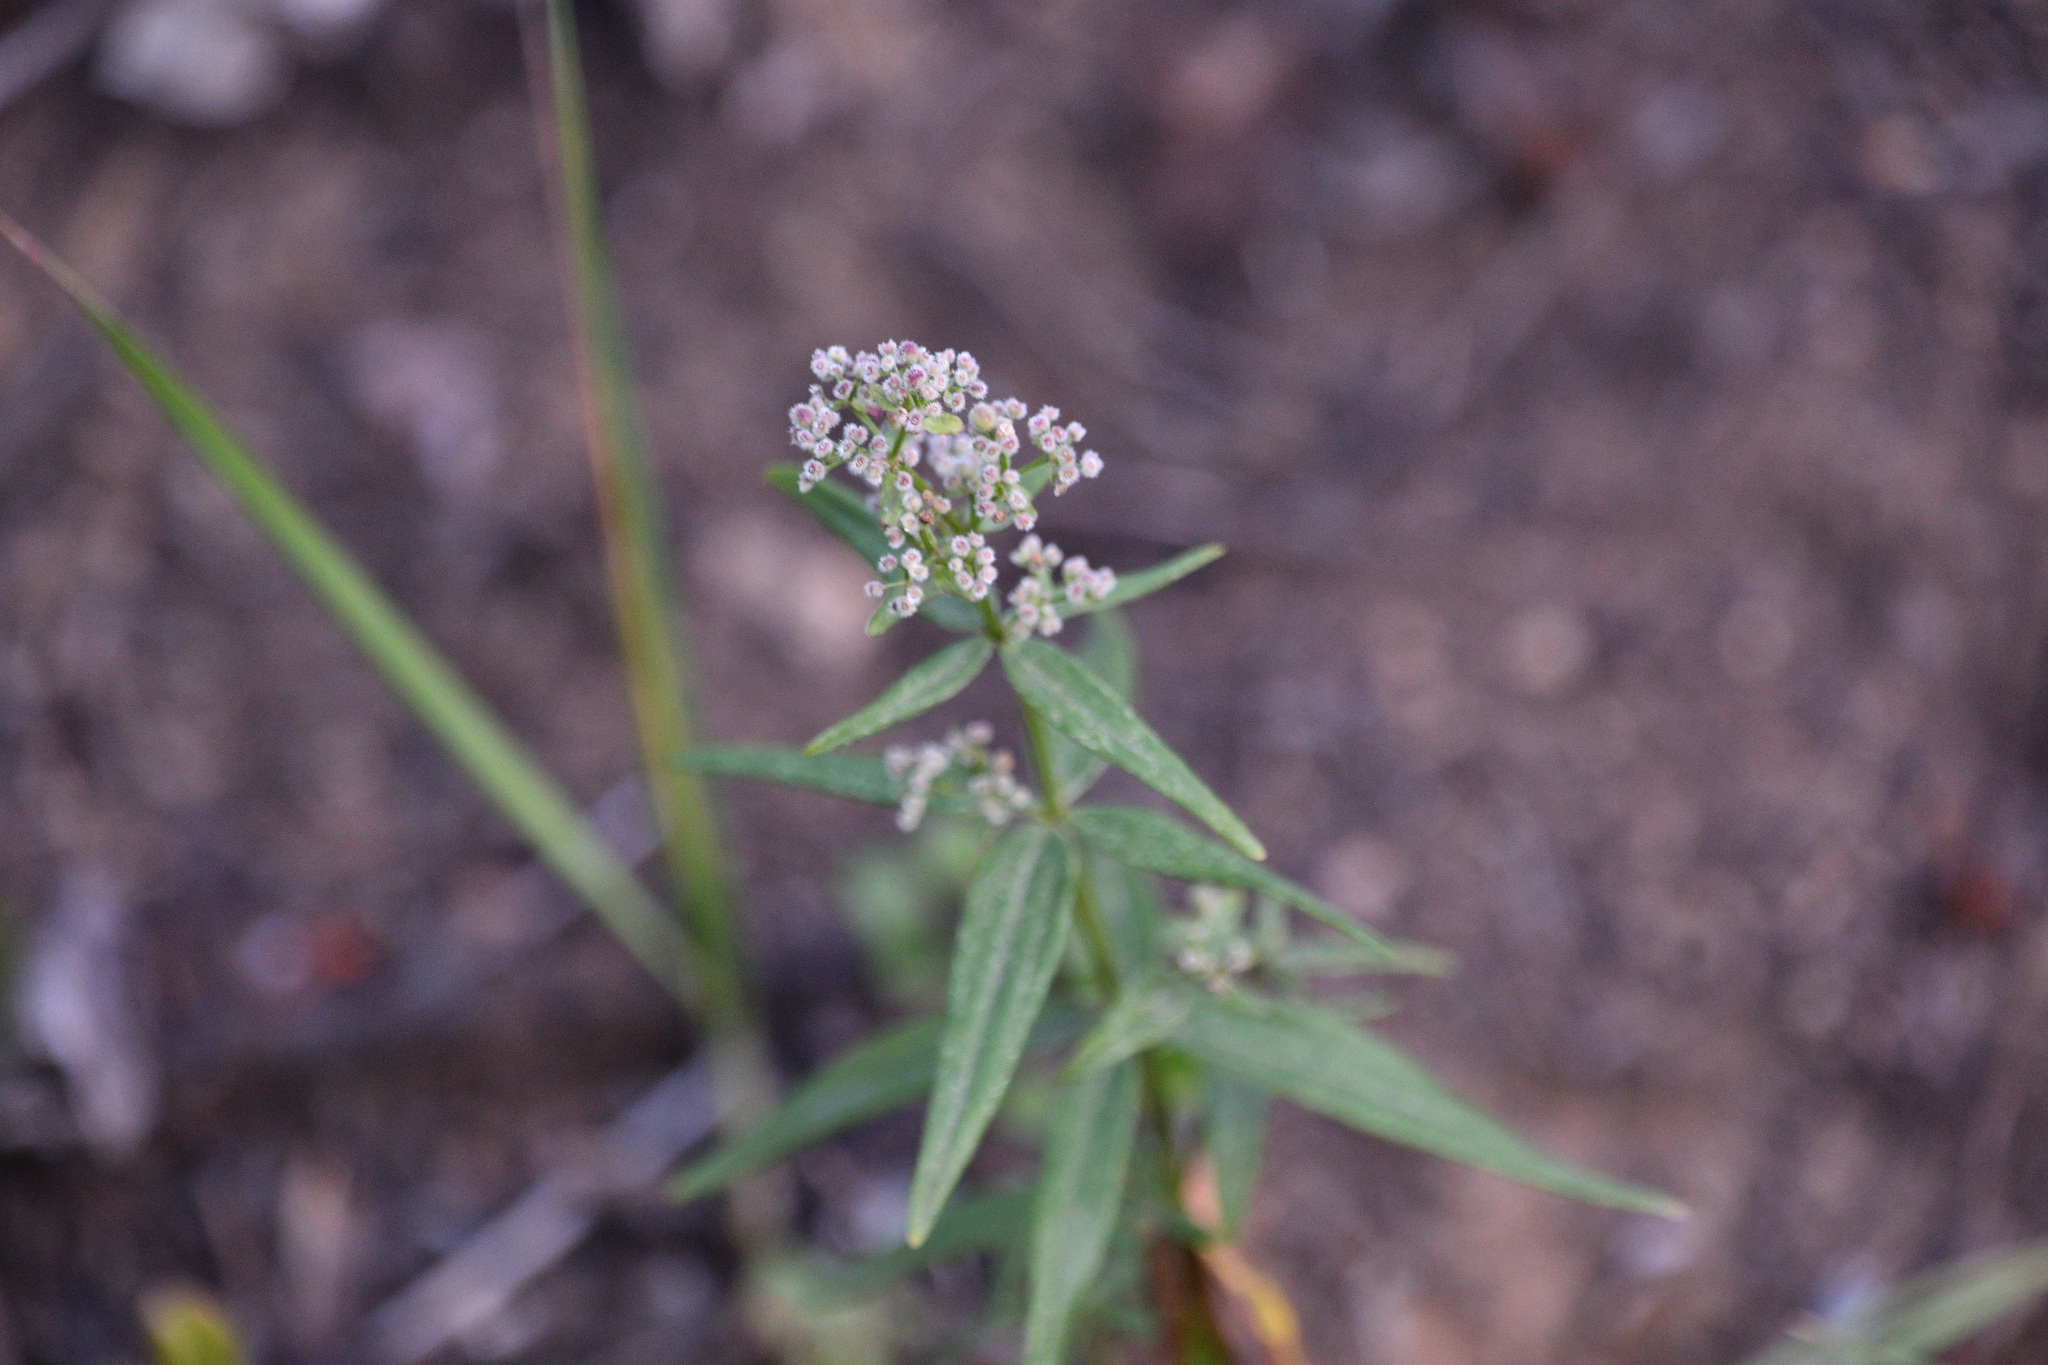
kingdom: Plantae
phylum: Tracheophyta
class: Magnoliopsida
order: Gentianales
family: Rubiaceae
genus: Galium
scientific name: Galium boreale
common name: Northern bedstraw
